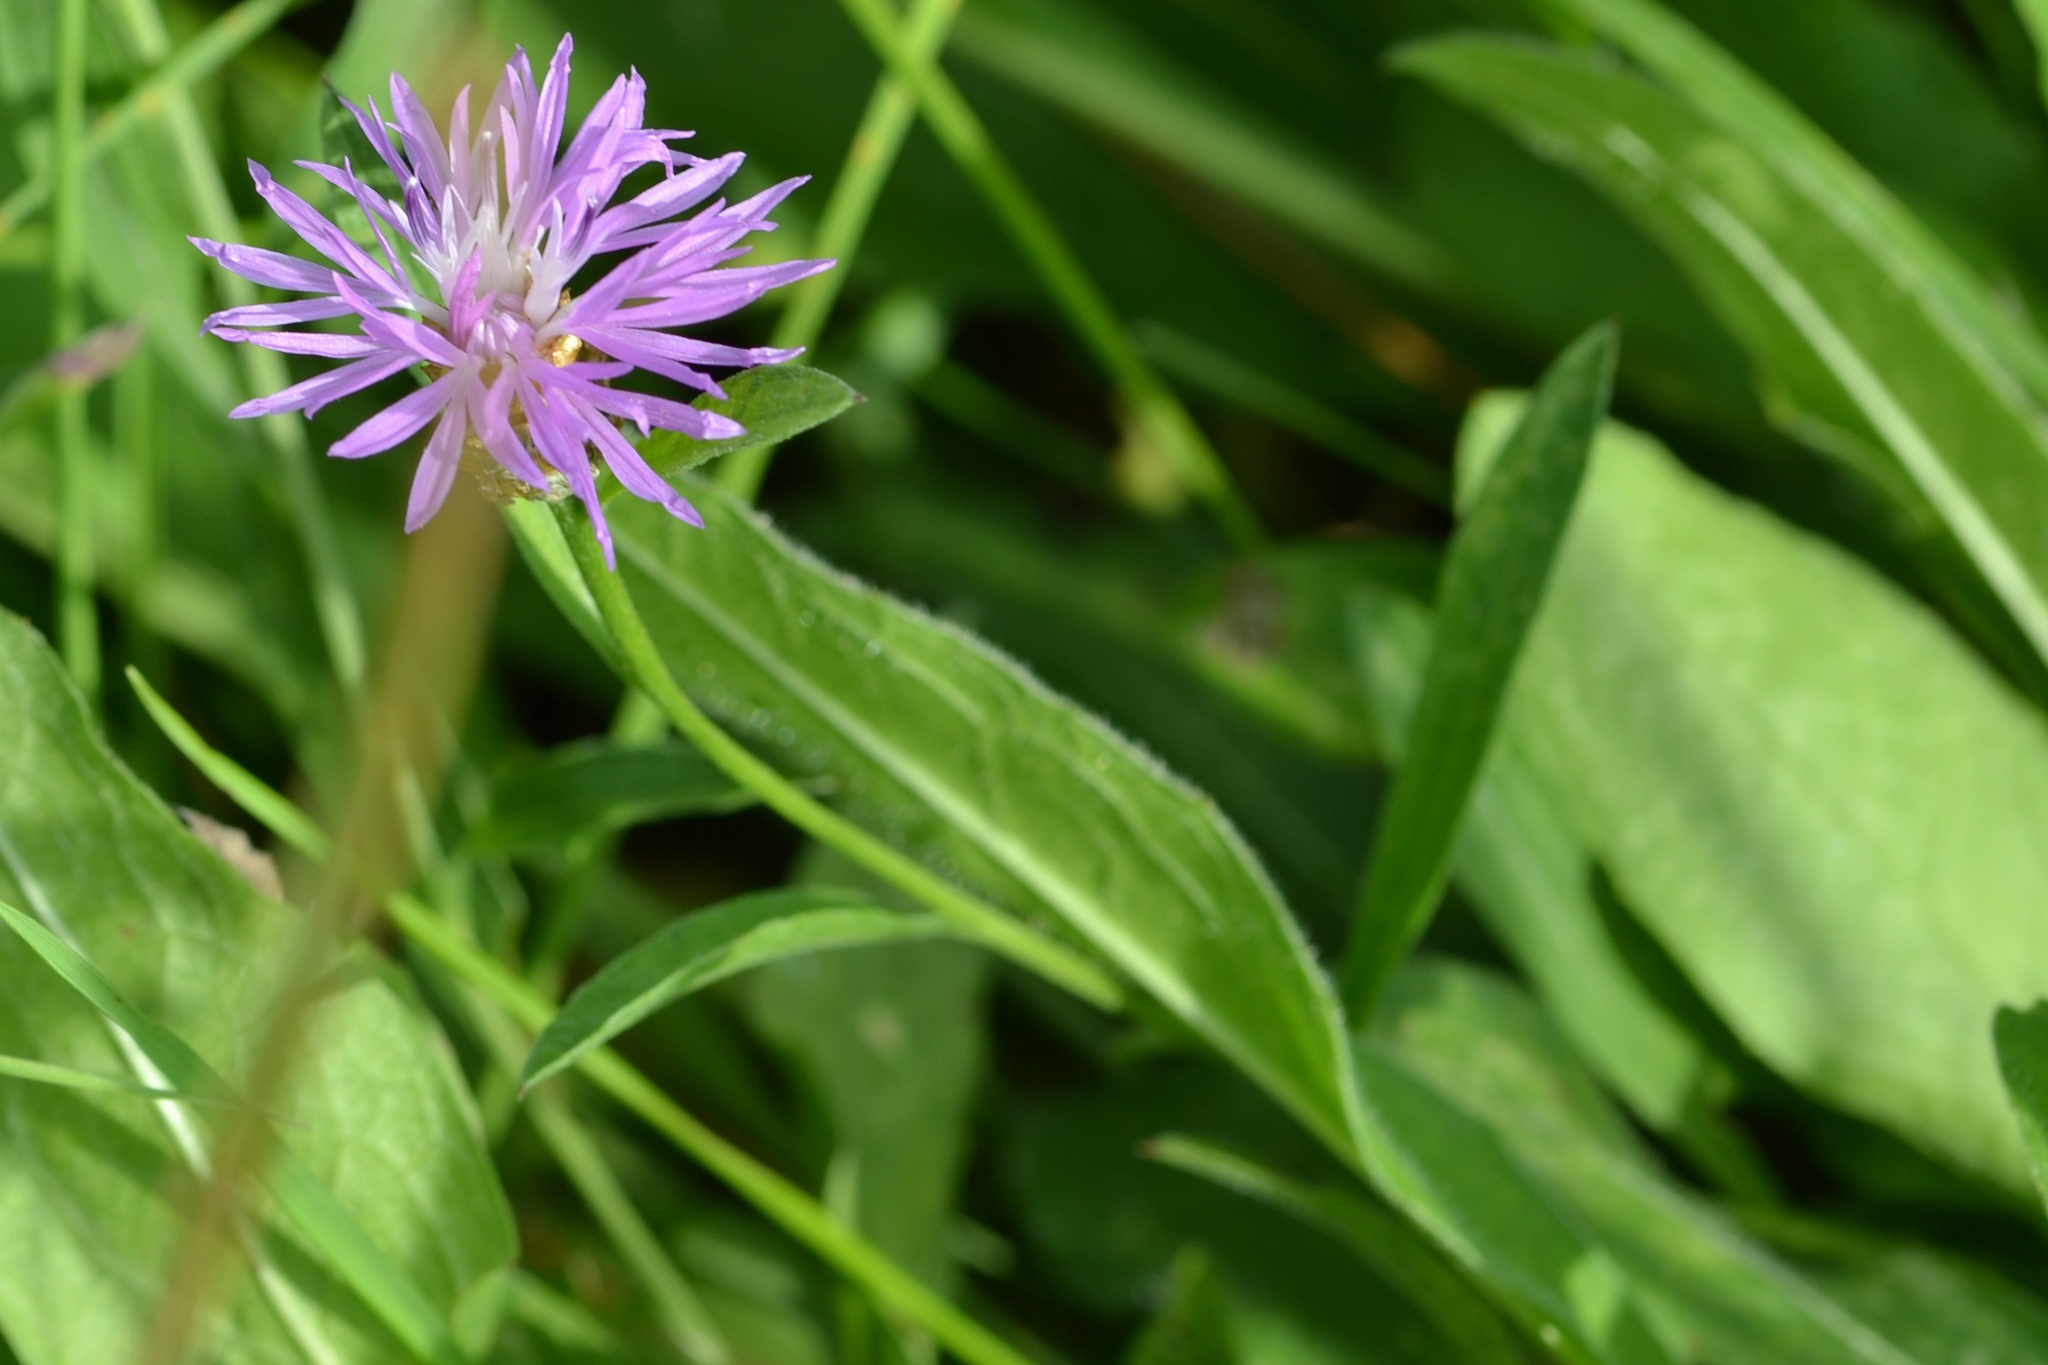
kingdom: Plantae
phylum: Tracheophyta
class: Magnoliopsida
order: Asterales
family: Asteraceae
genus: Centaurea
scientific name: Centaurea jacea
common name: Brown knapweed
